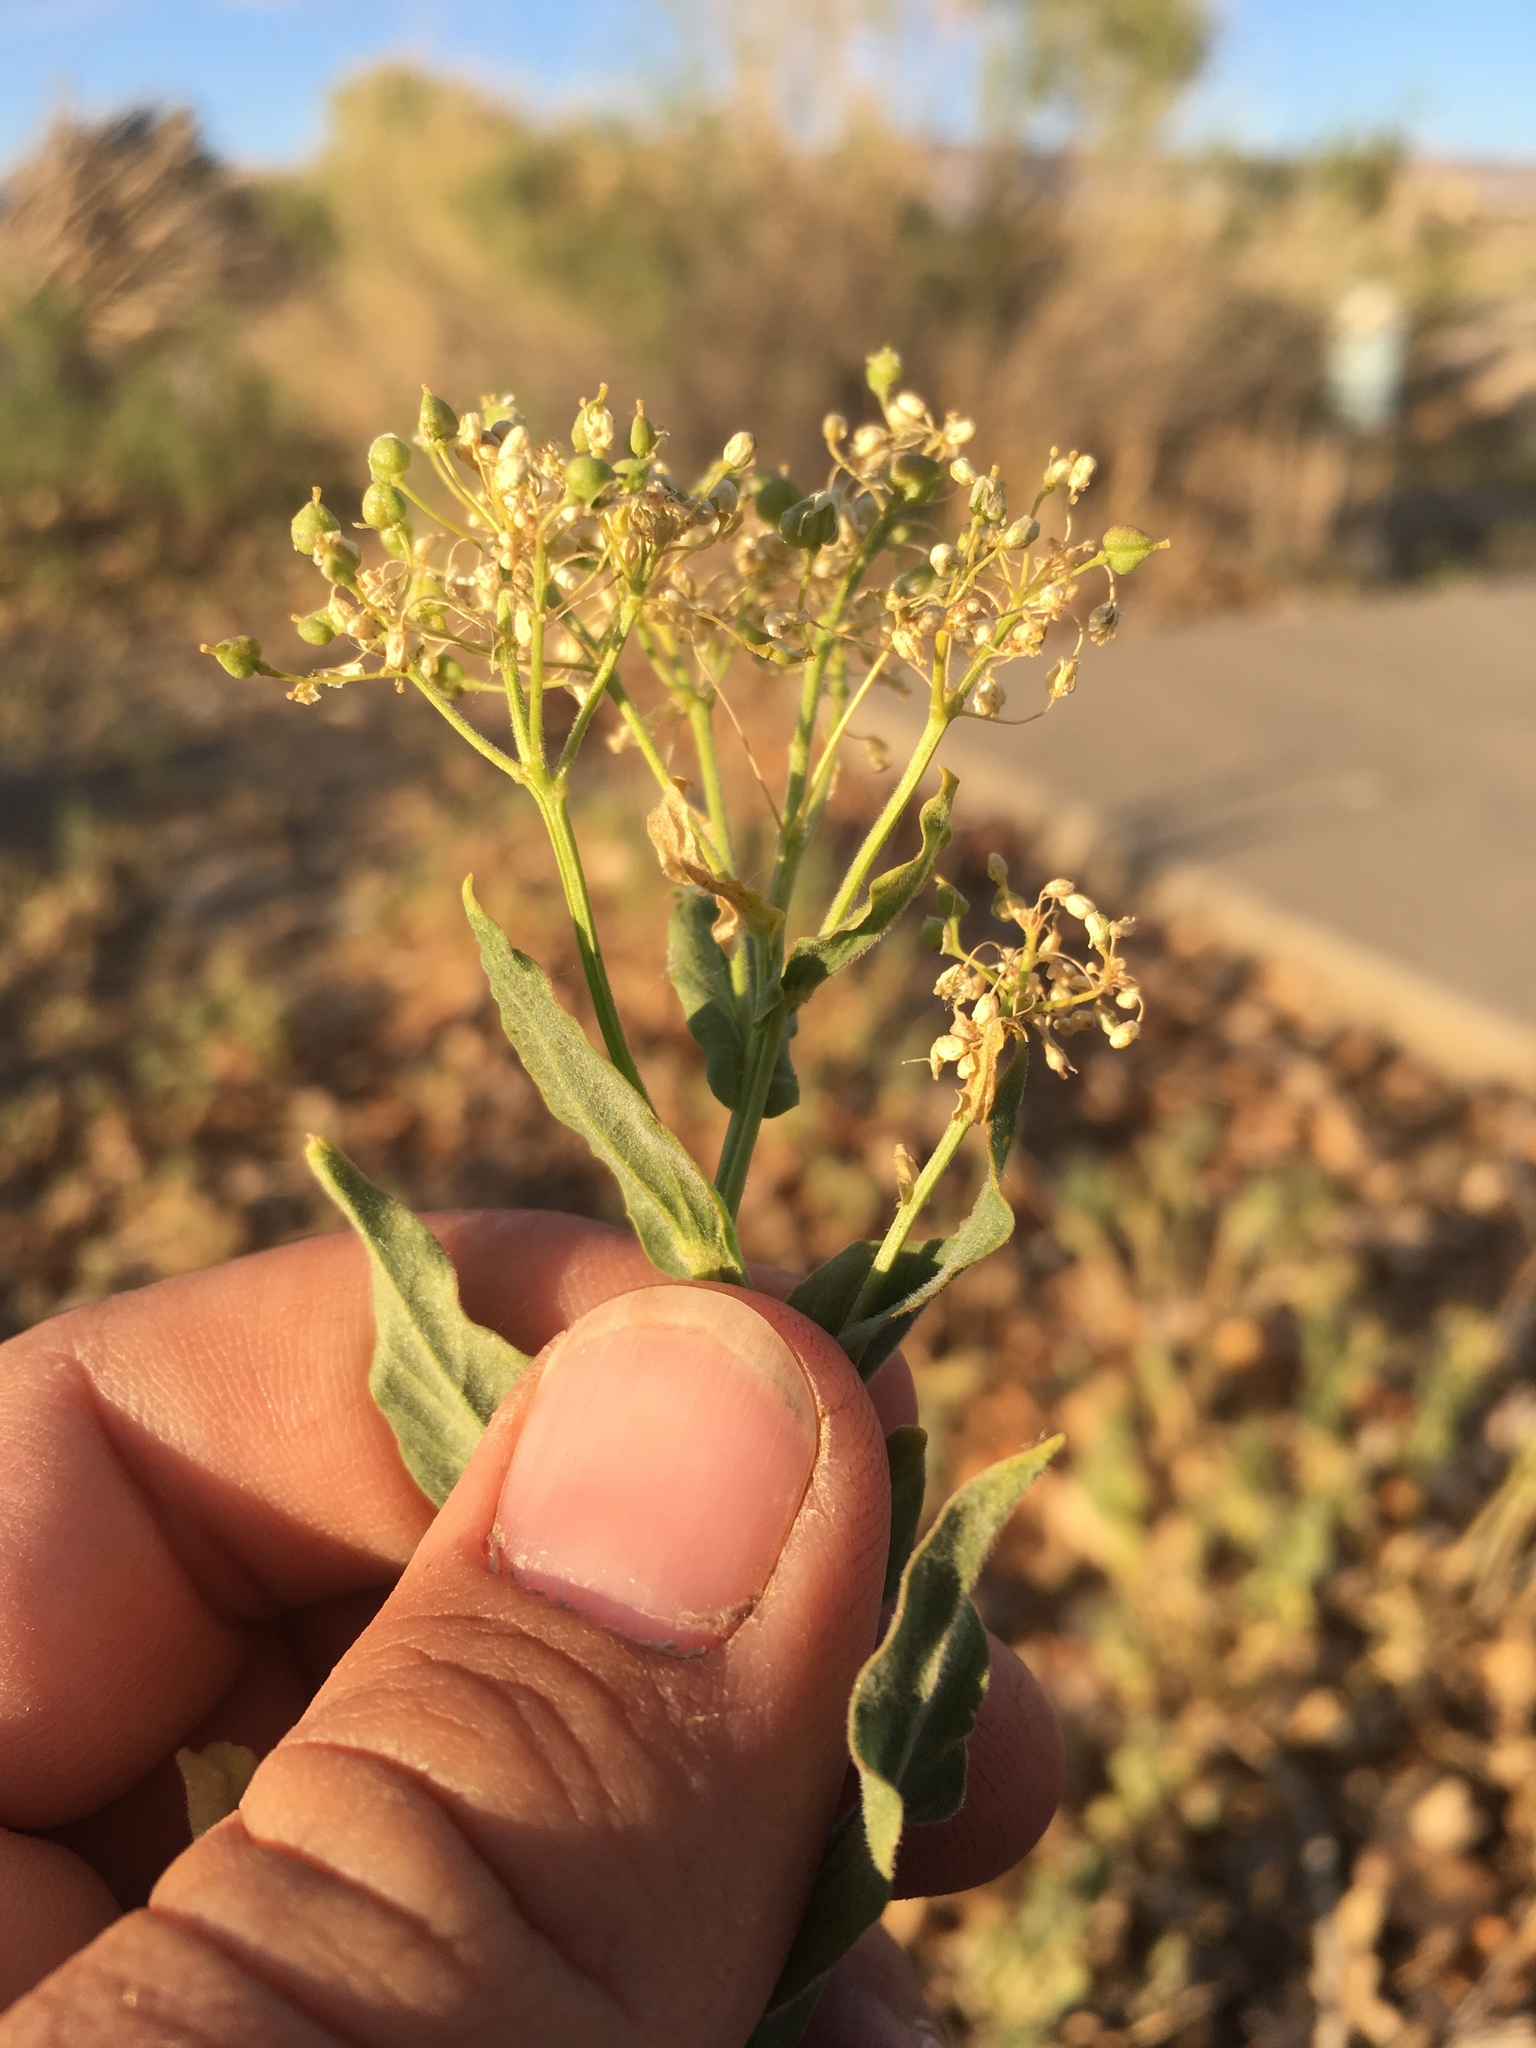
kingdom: Plantae
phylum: Tracheophyta
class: Magnoliopsida
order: Brassicales
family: Brassicaceae
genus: Lepidium
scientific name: Lepidium draba
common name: Hoary cress
